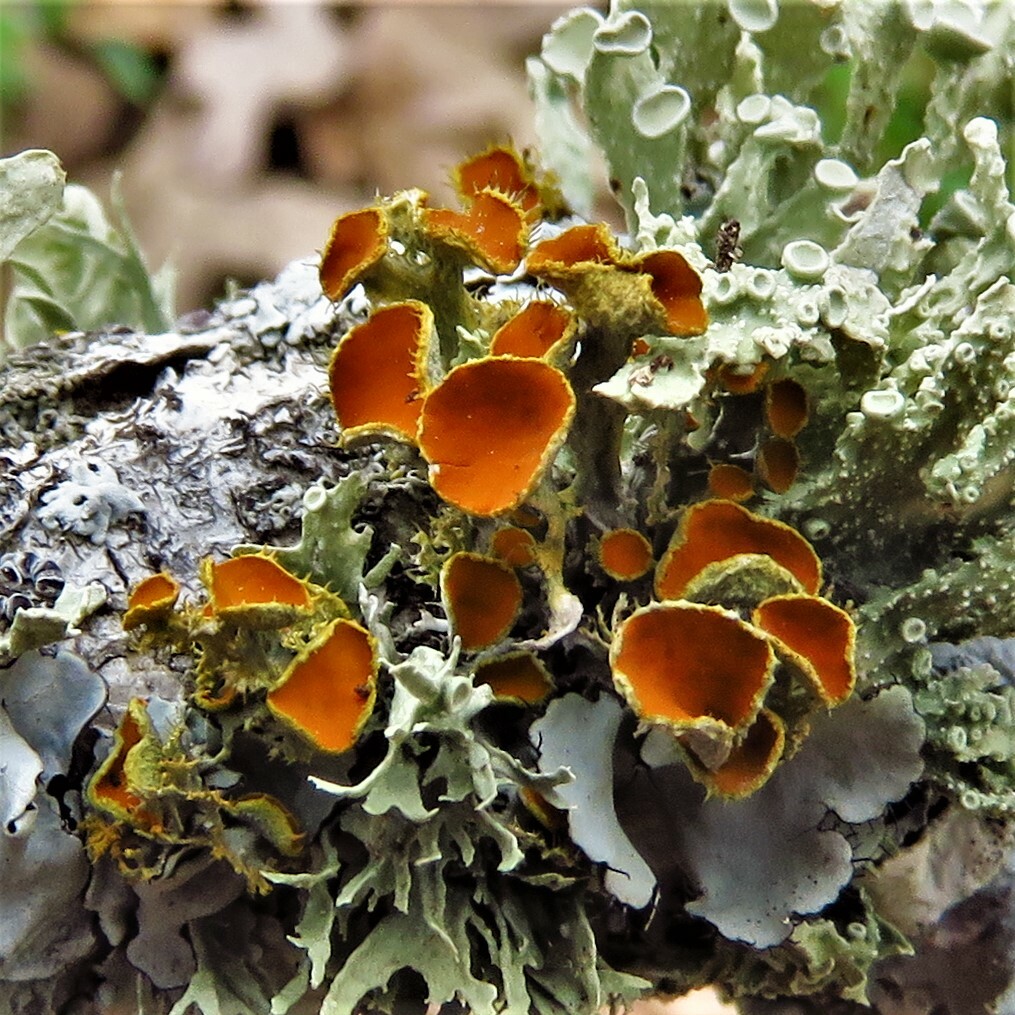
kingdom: Fungi
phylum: Ascomycota
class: Lecanoromycetes
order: Teloschistales
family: Teloschistaceae
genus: Niorma
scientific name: Niorma chrysophthalma
